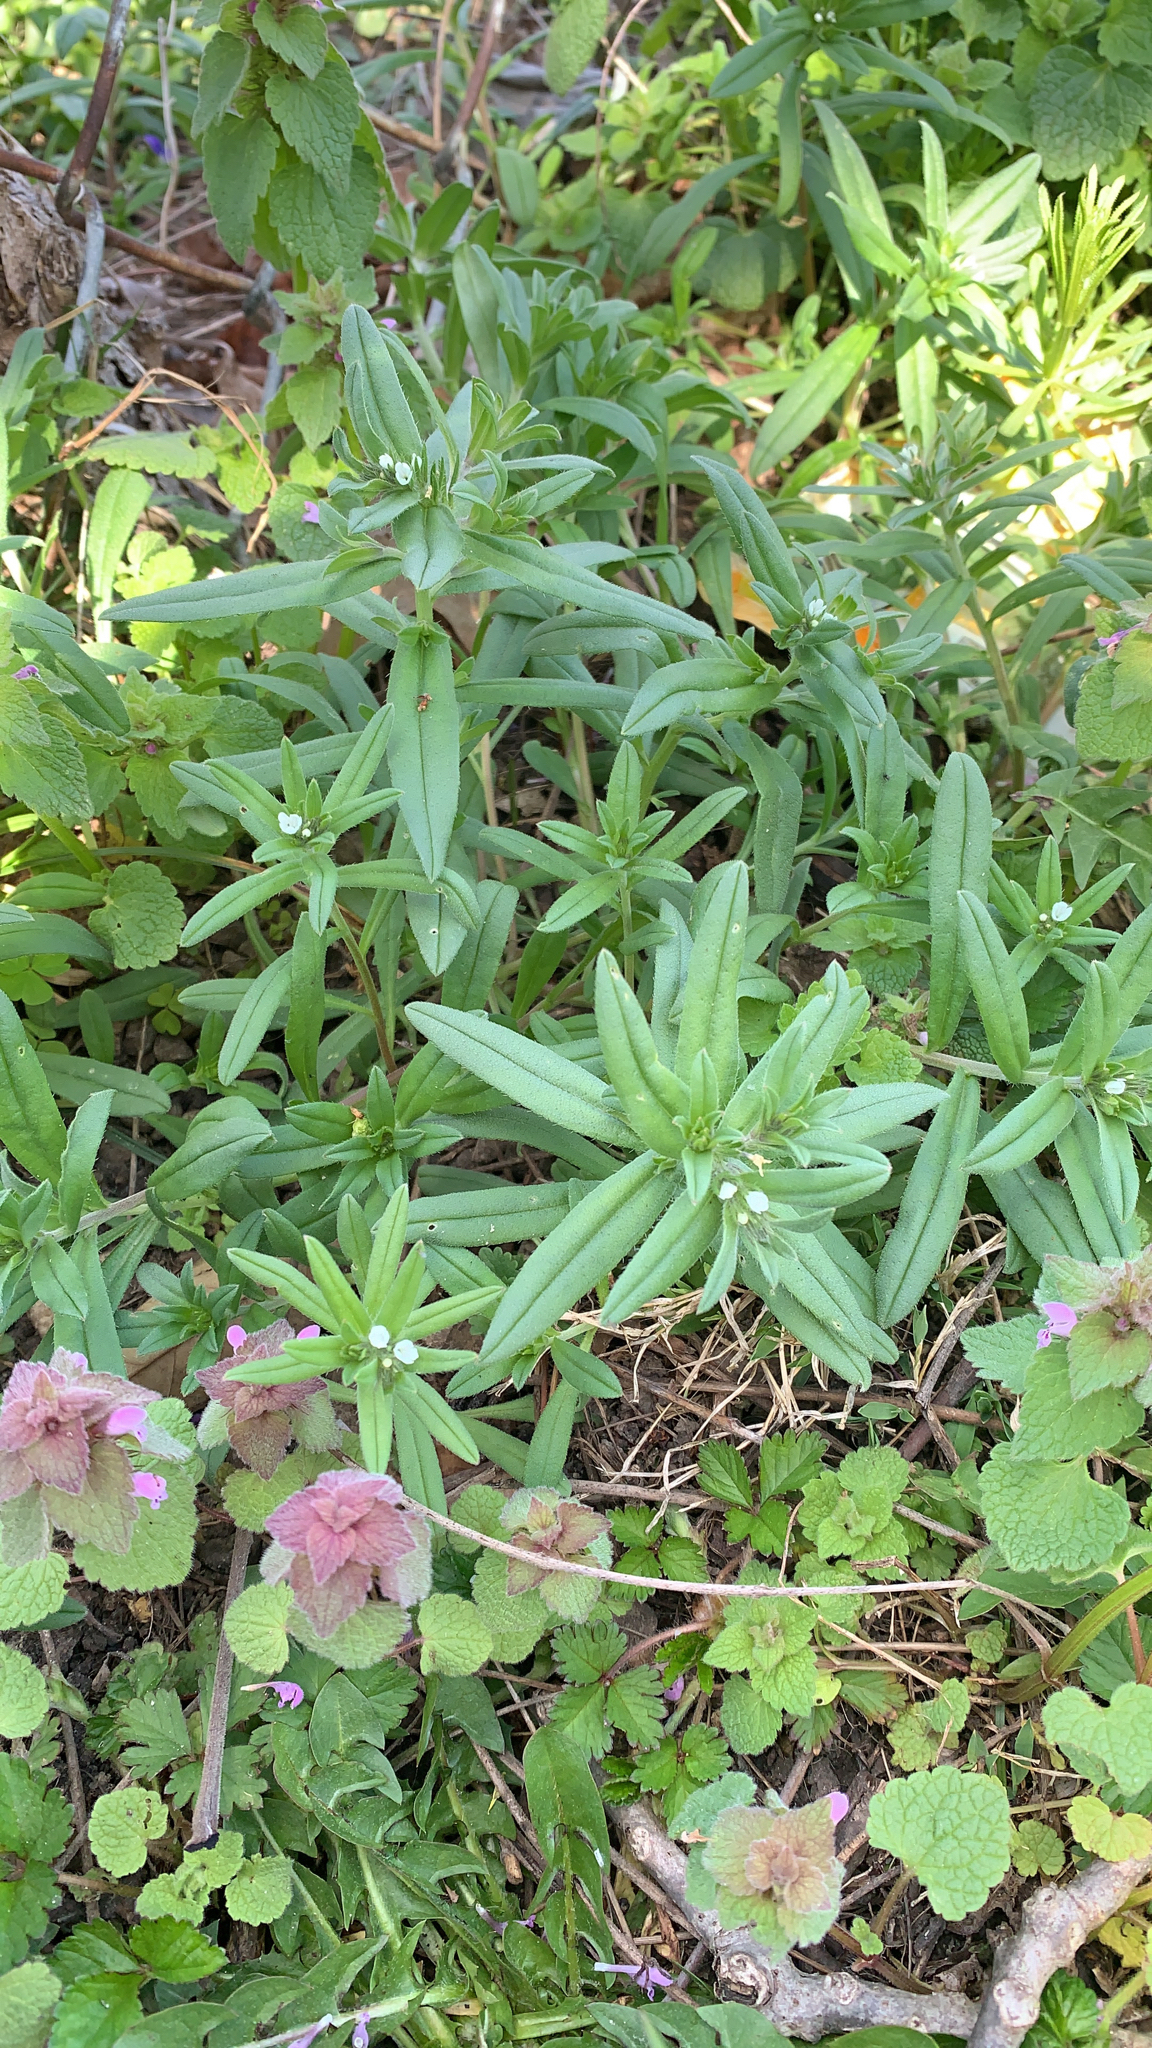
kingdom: Plantae
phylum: Tracheophyta
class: Magnoliopsida
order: Boraginales
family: Boraginaceae
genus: Buglossoides
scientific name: Buglossoides arvensis
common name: Corn gromwell
